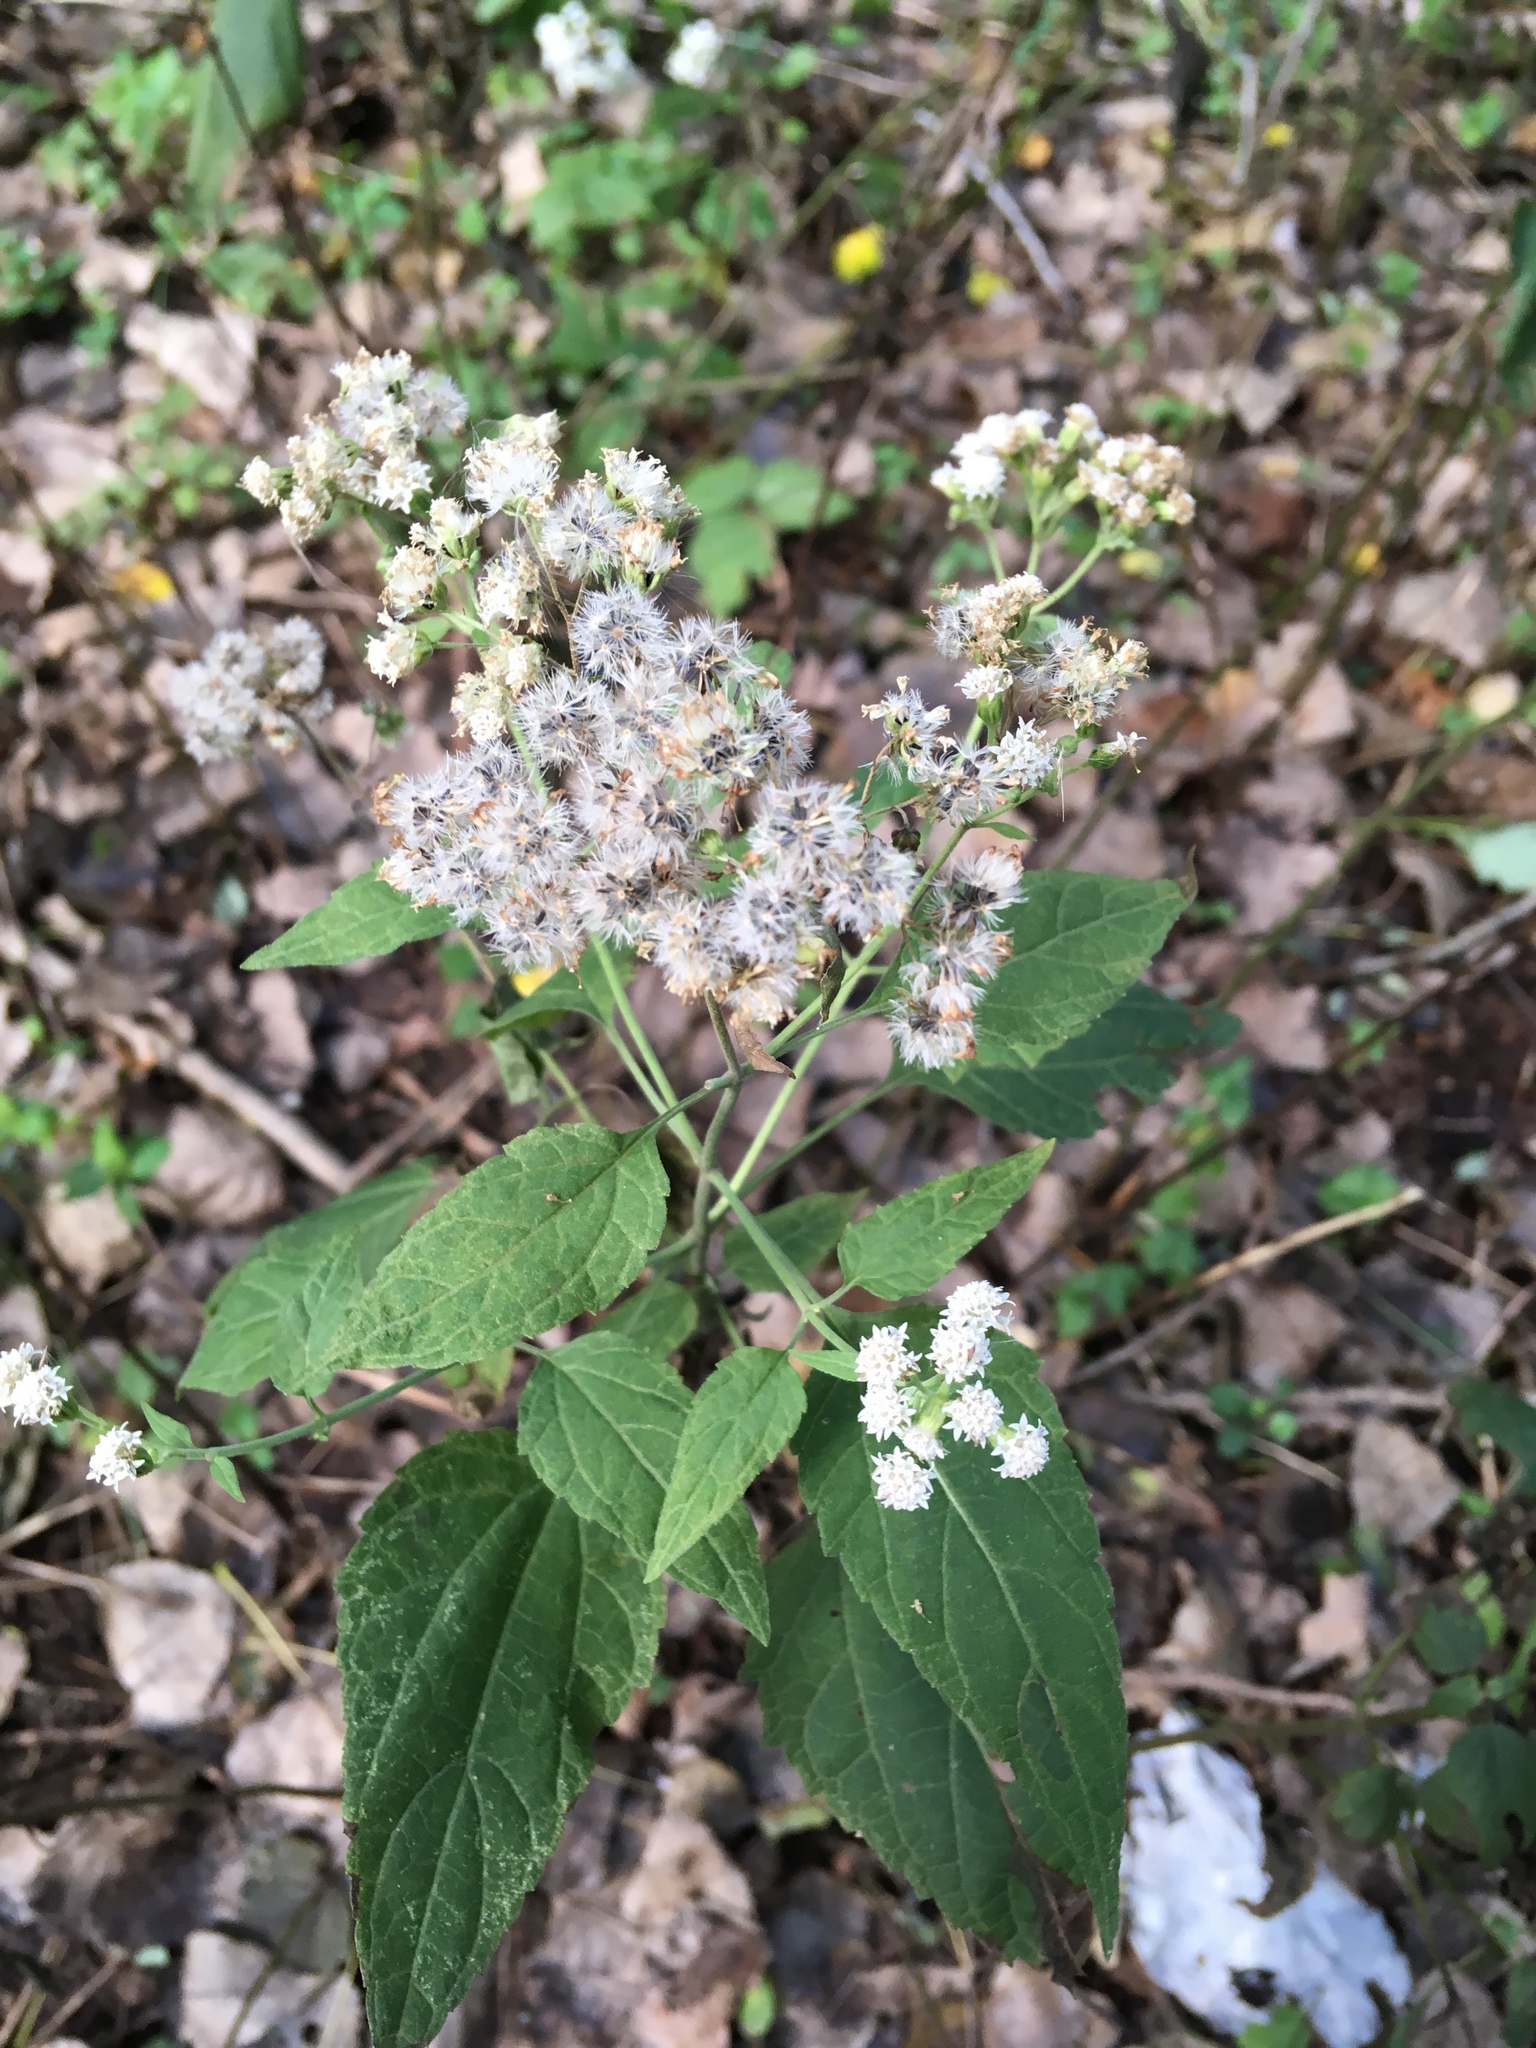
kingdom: Plantae
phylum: Tracheophyta
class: Magnoliopsida
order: Asterales
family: Asteraceae
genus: Ageratina
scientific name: Ageratina altissima
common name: White snakeroot
